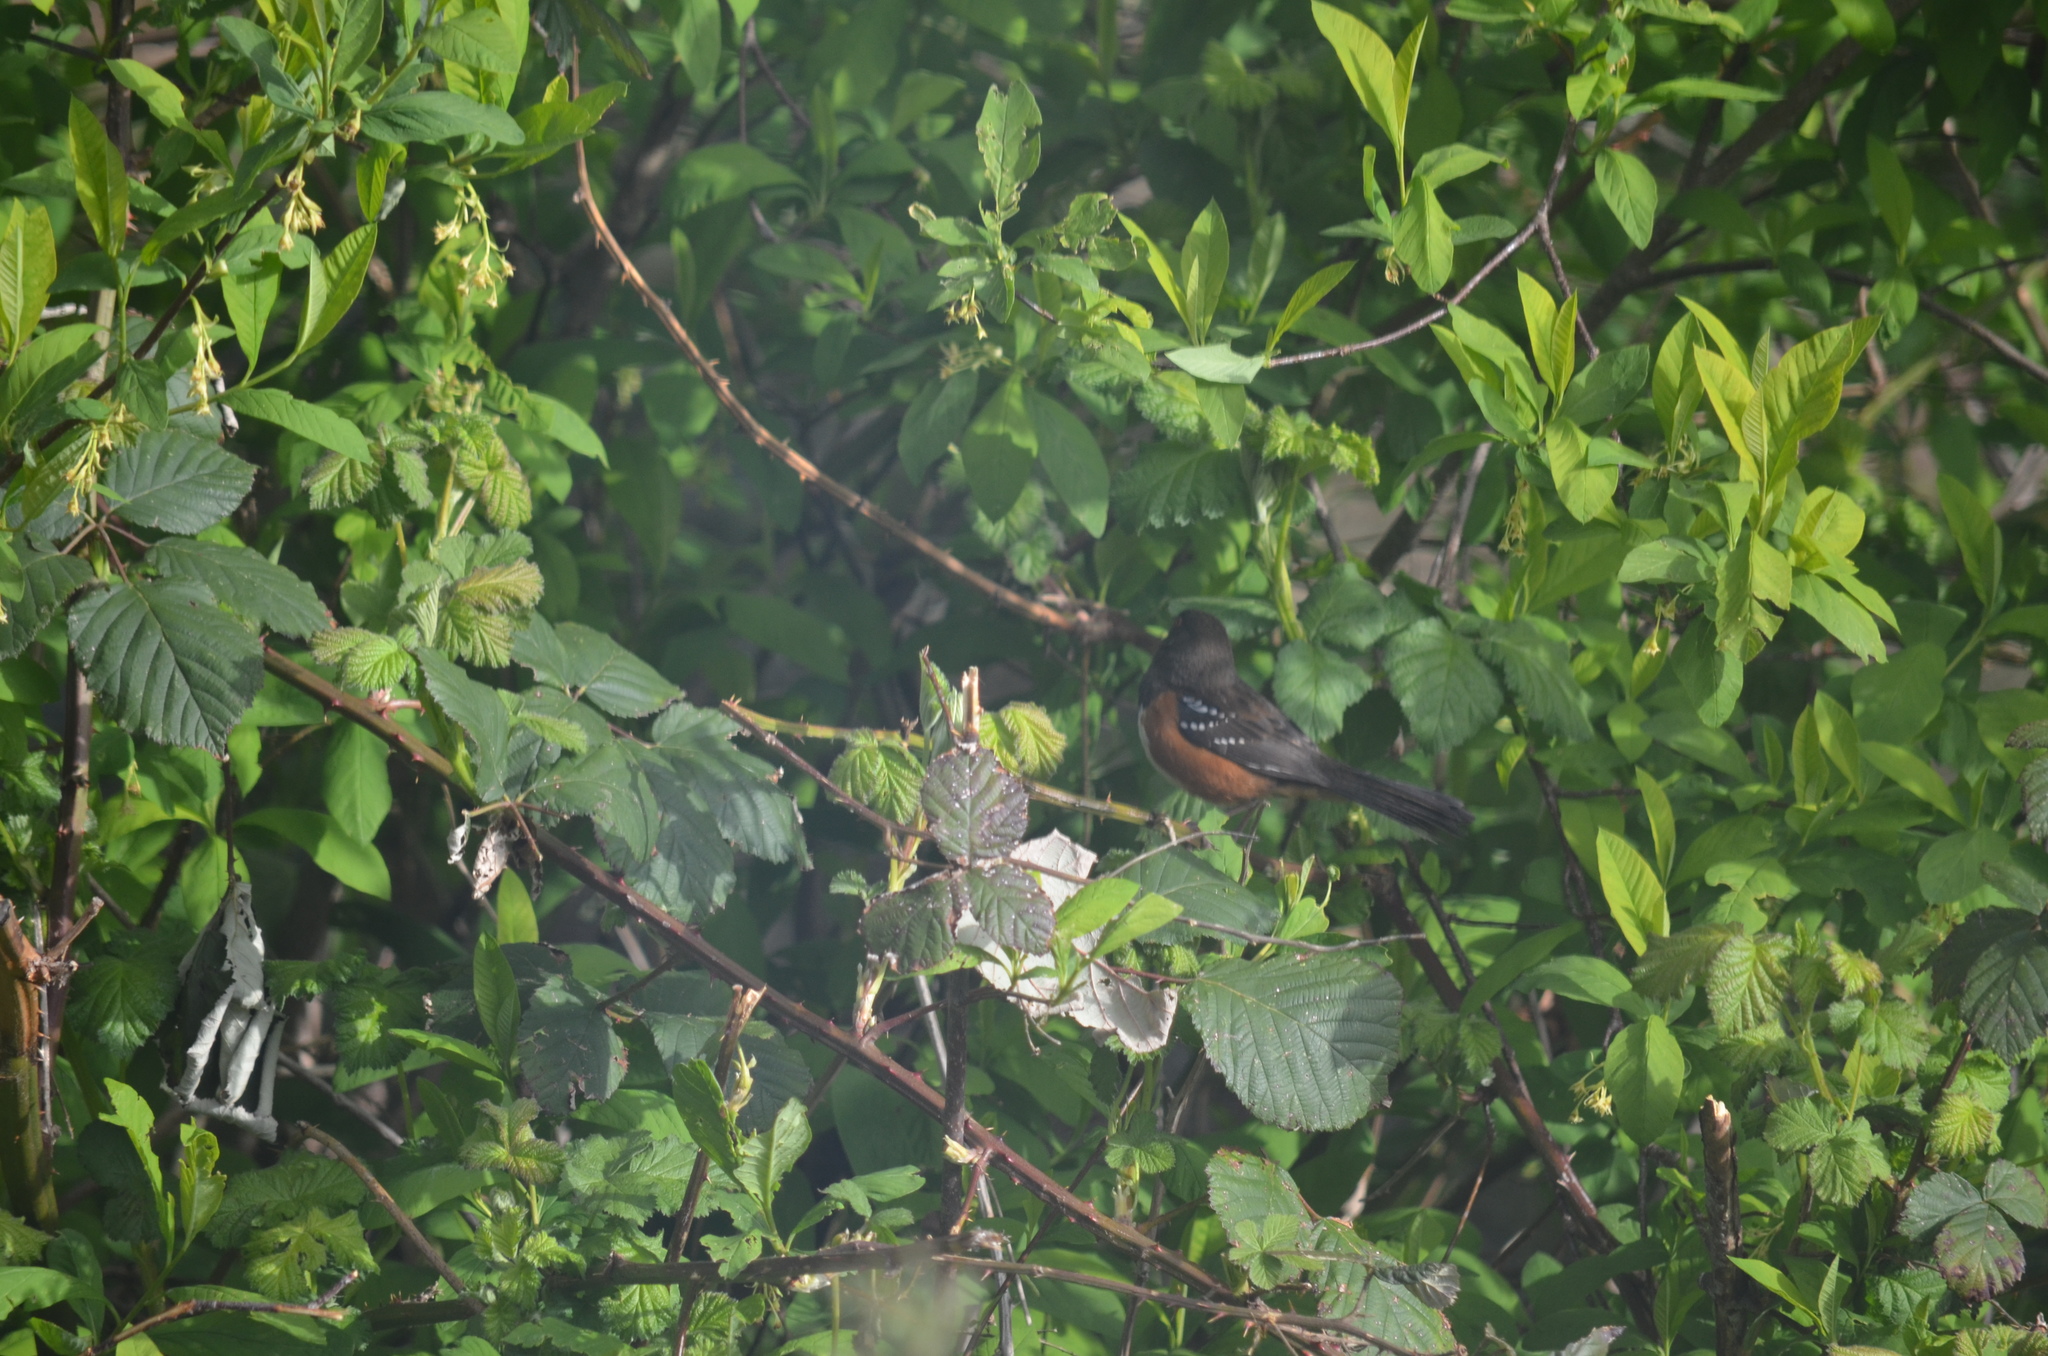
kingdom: Animalia
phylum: Chordata
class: Aves
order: Passeriformes
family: Passerellidae
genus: Pipilo
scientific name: Pipilo maculatus
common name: Spotted towhee
